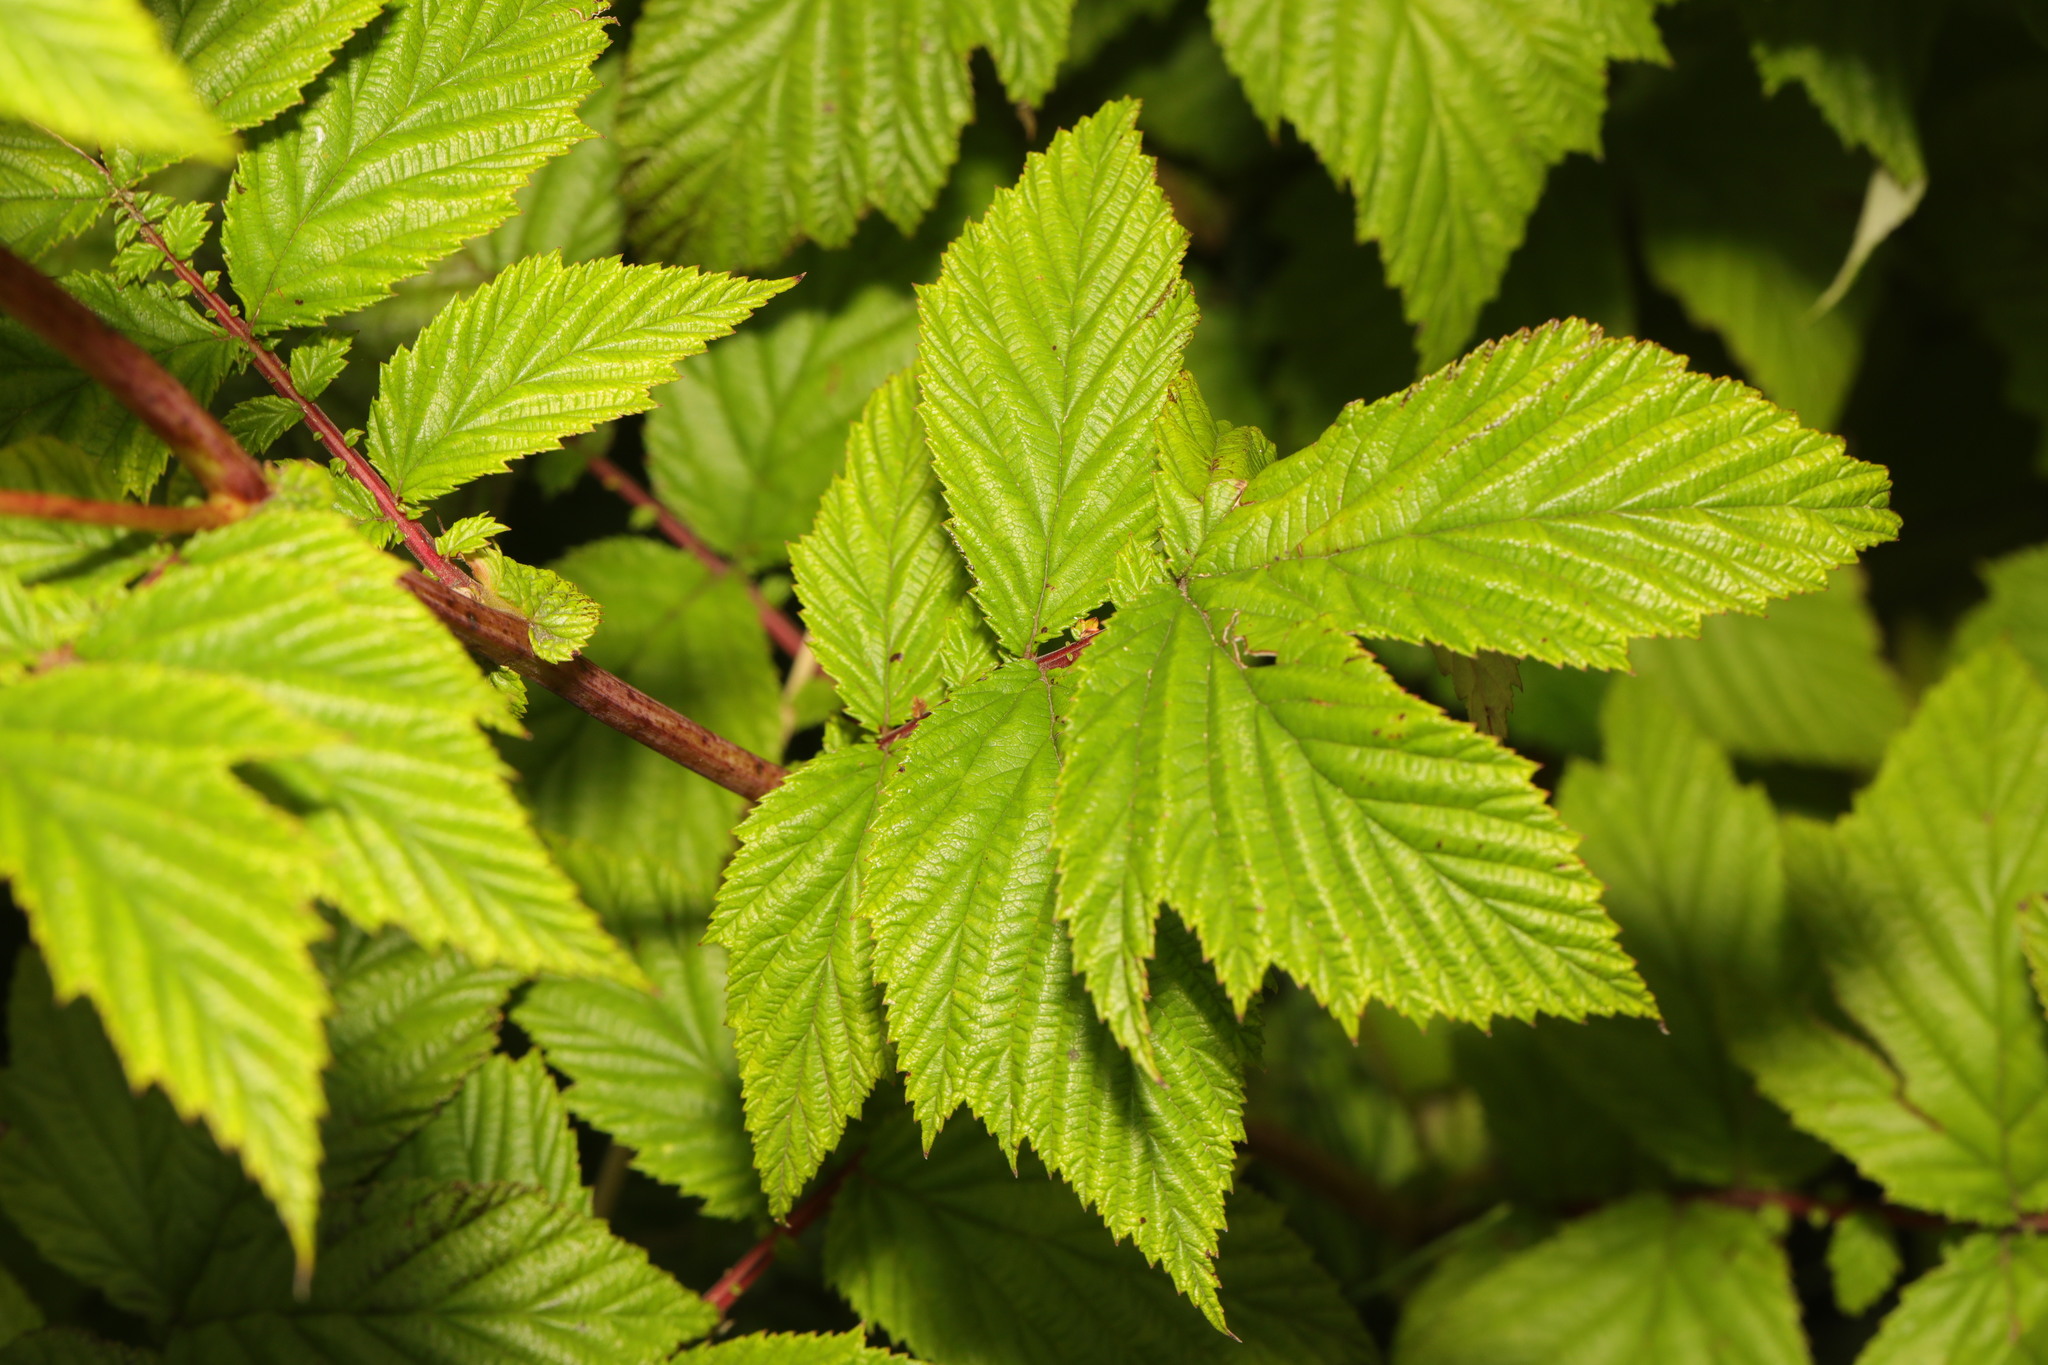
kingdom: Plantae
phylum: Tracheophyta
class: Magnoliopsida
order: Rosales
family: Rosaceae
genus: Filipendula
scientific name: Filipendula ulmaria
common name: Meadowsweet
